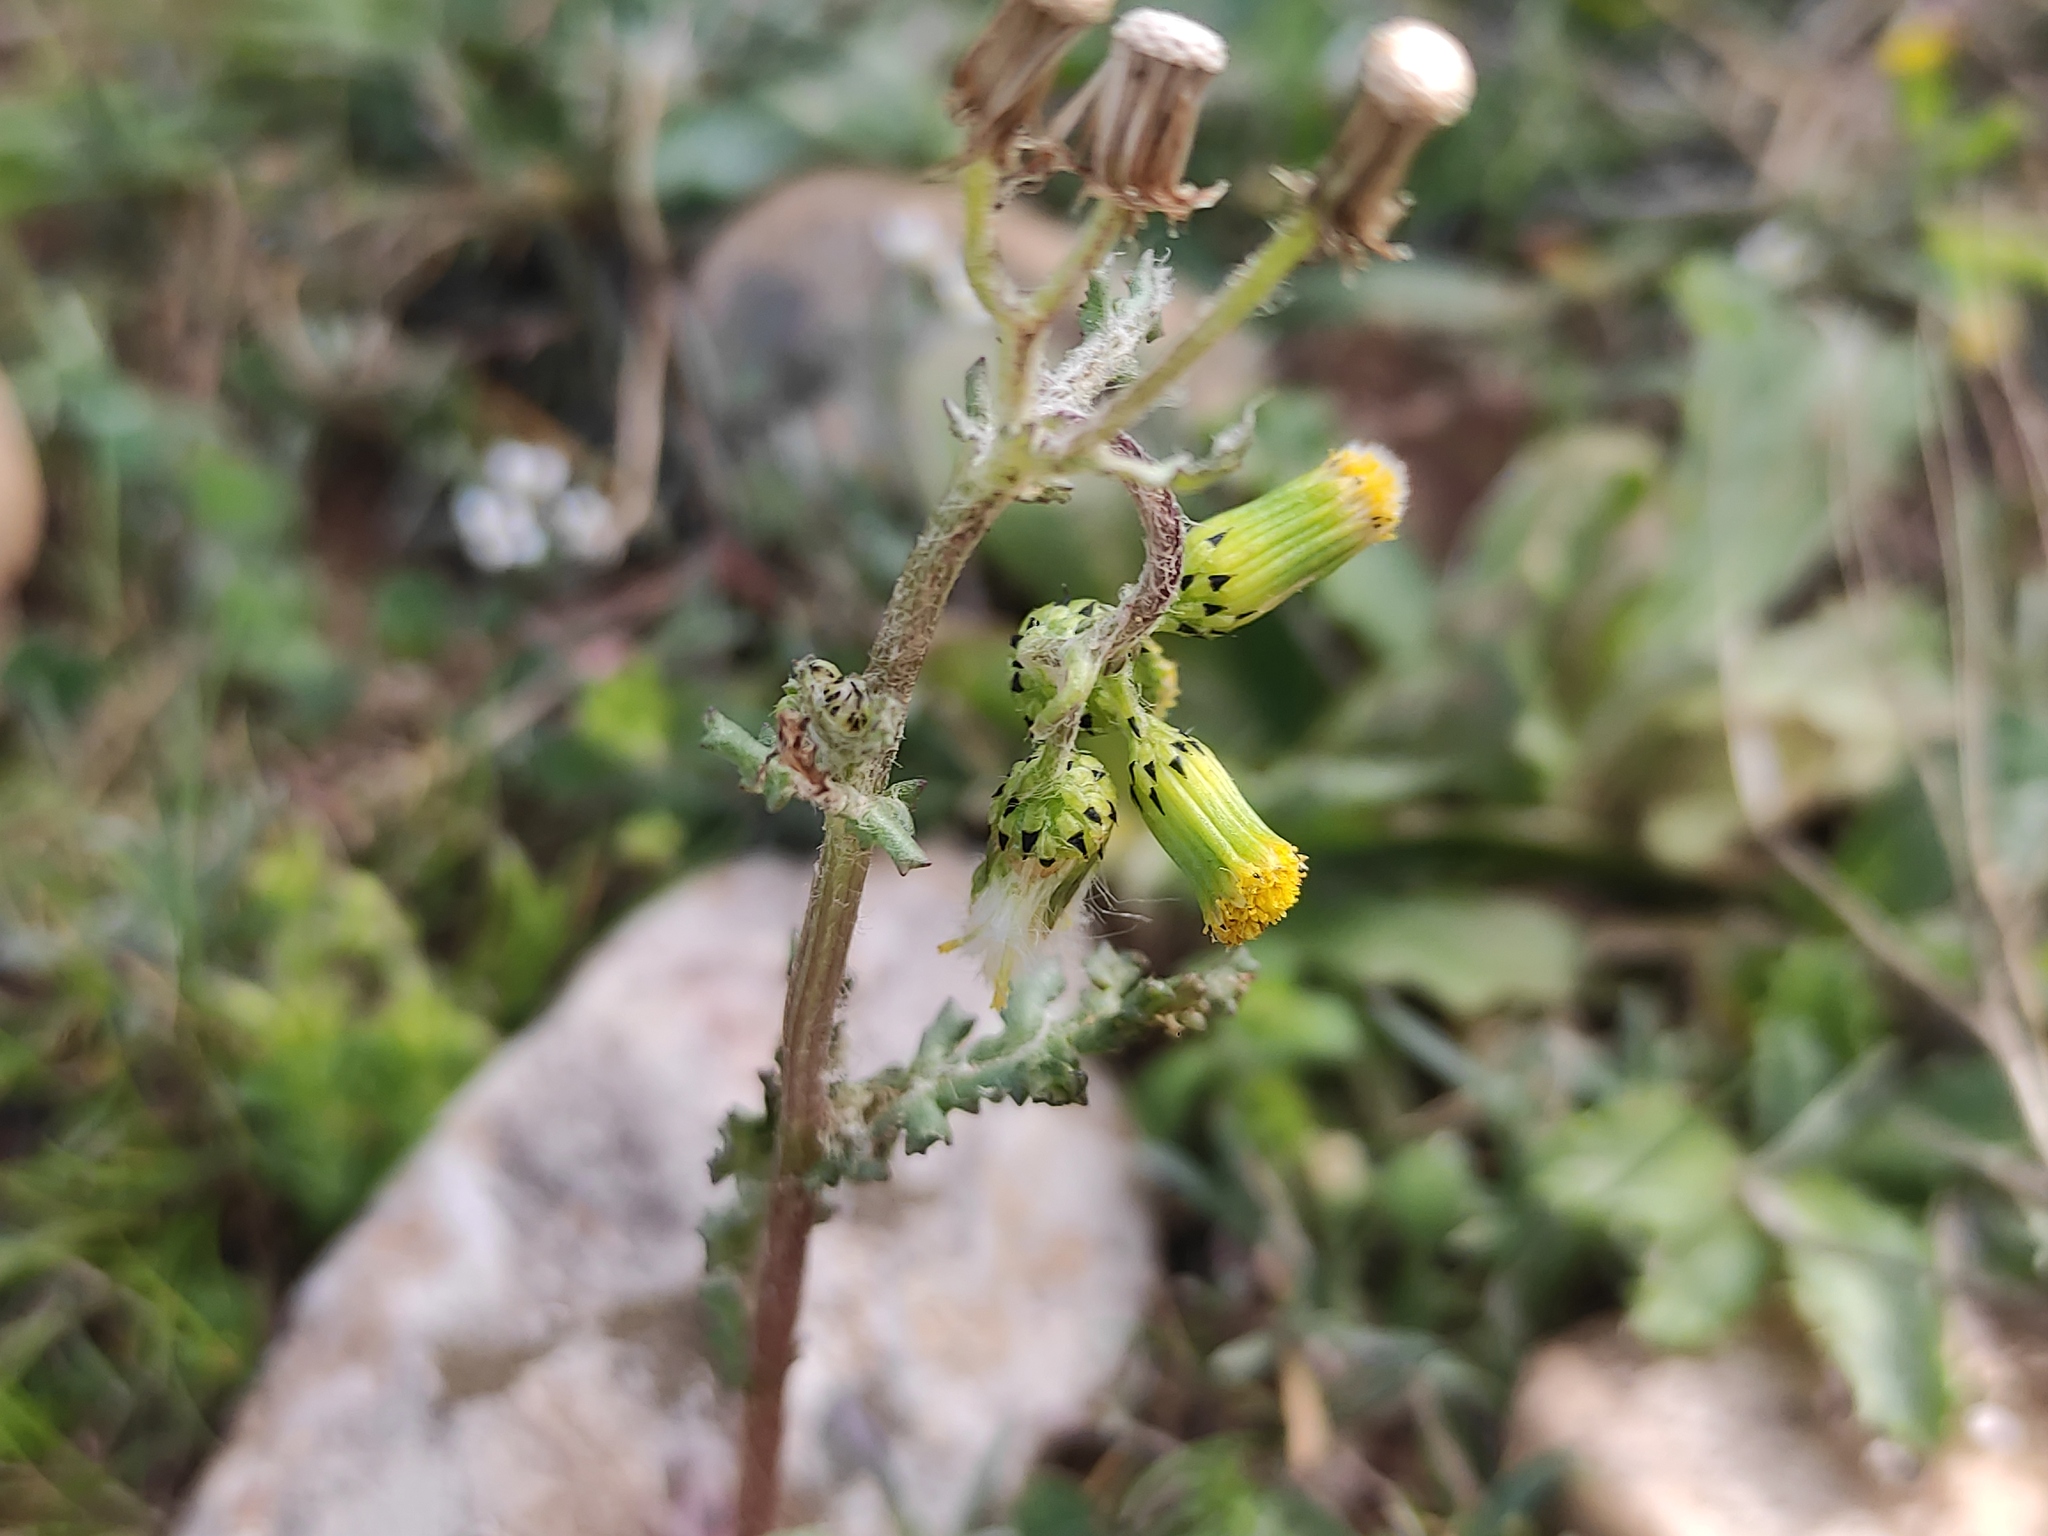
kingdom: Plantae
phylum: Tracheophyta
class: Magnoliopsida
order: Asterales
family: Asteraceae
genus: Senecio
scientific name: Senecio vulgaris
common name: Old-man-in-the-spring
